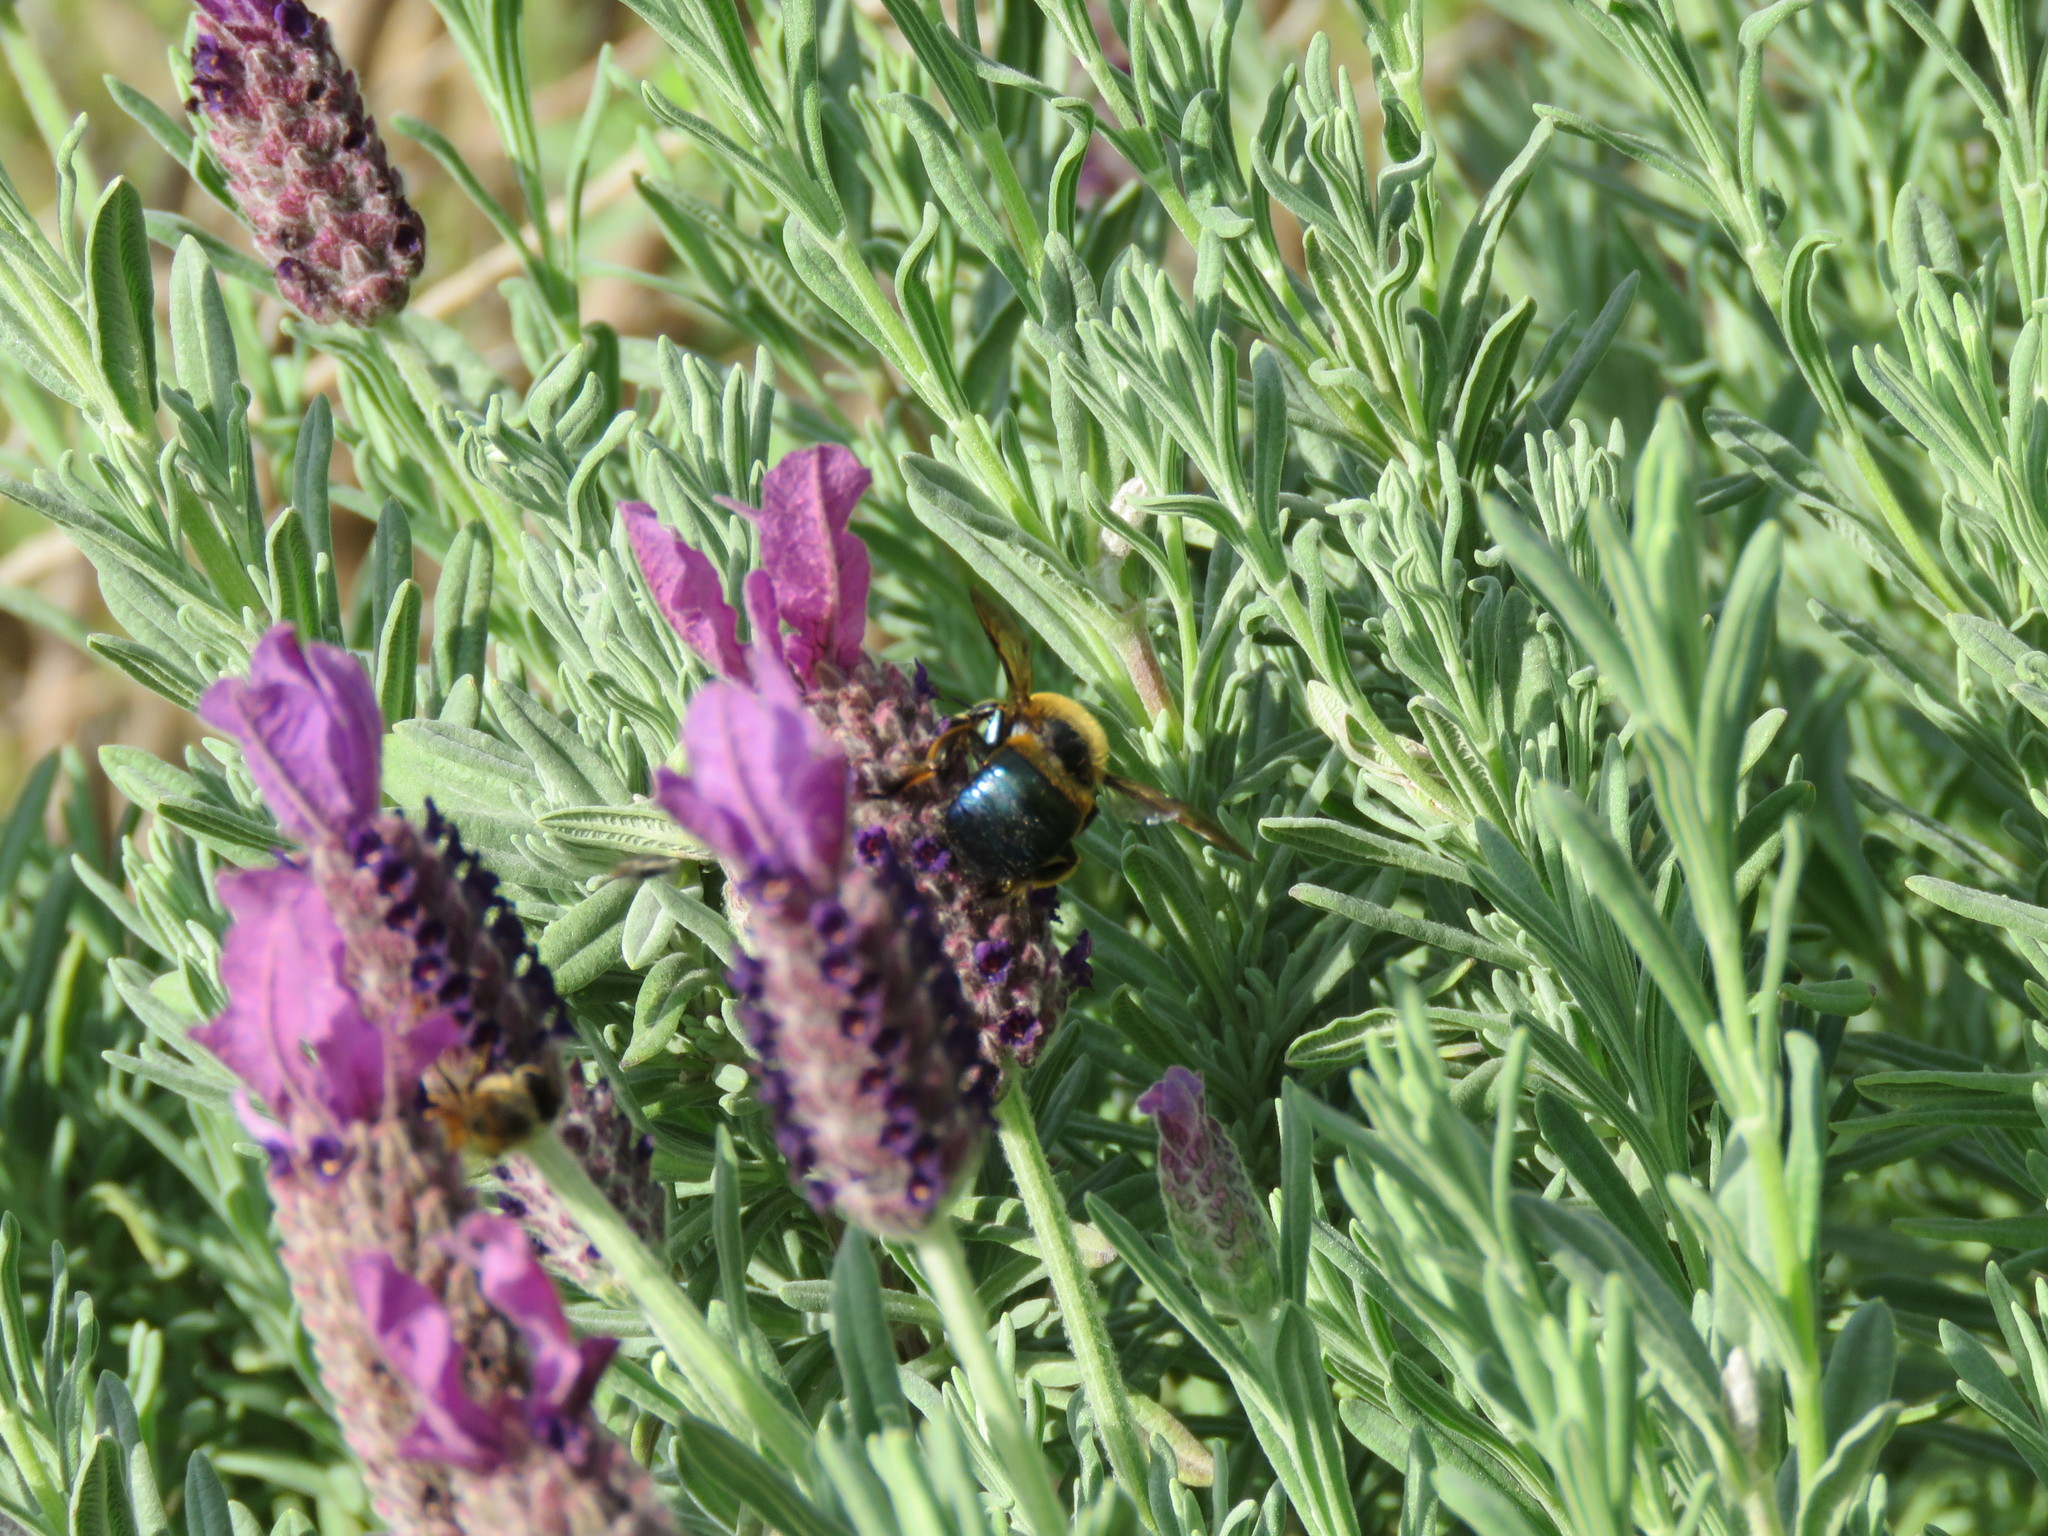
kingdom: Animalia
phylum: Arthropoda
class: Insecta
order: Hymenoptera
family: Apidae
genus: Xylocopa
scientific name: Xylocopa micans
